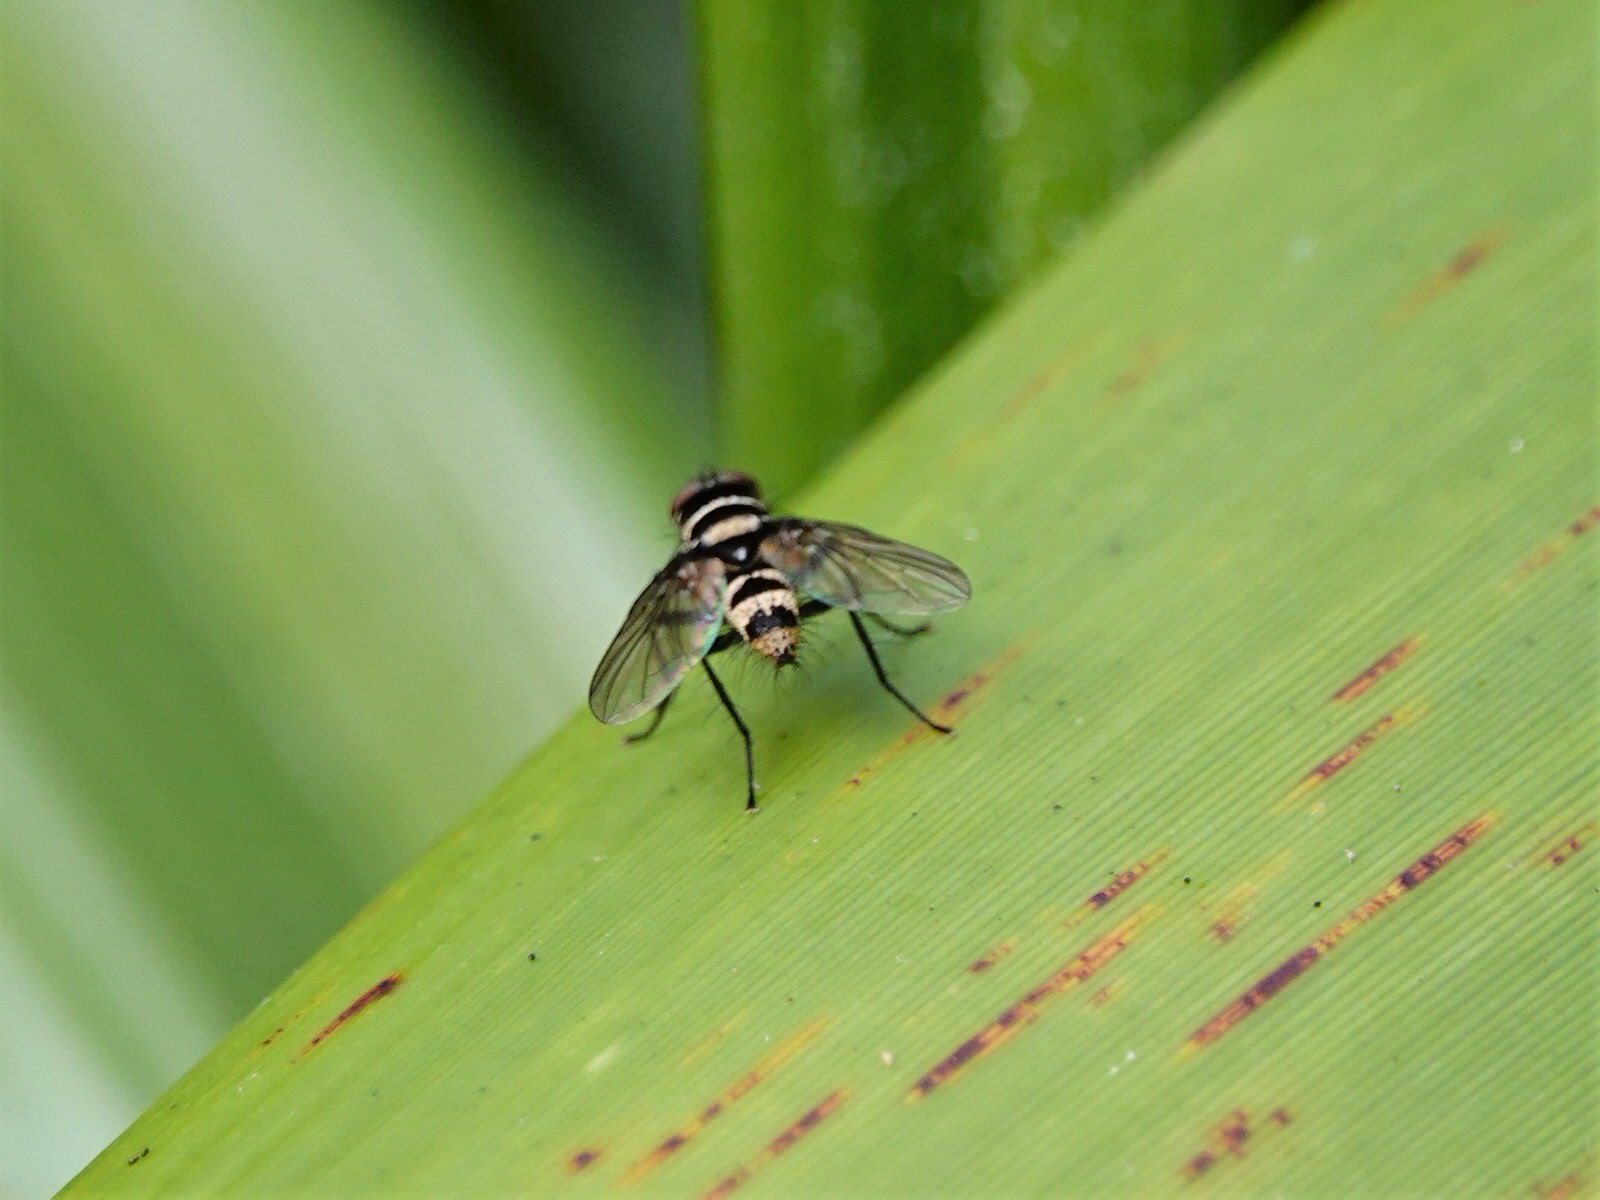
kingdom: Animalia
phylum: Arthropoda
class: Insecta
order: Diptera
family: Tachinidae
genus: Trigonospila
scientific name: Trigonospila brevifacies
